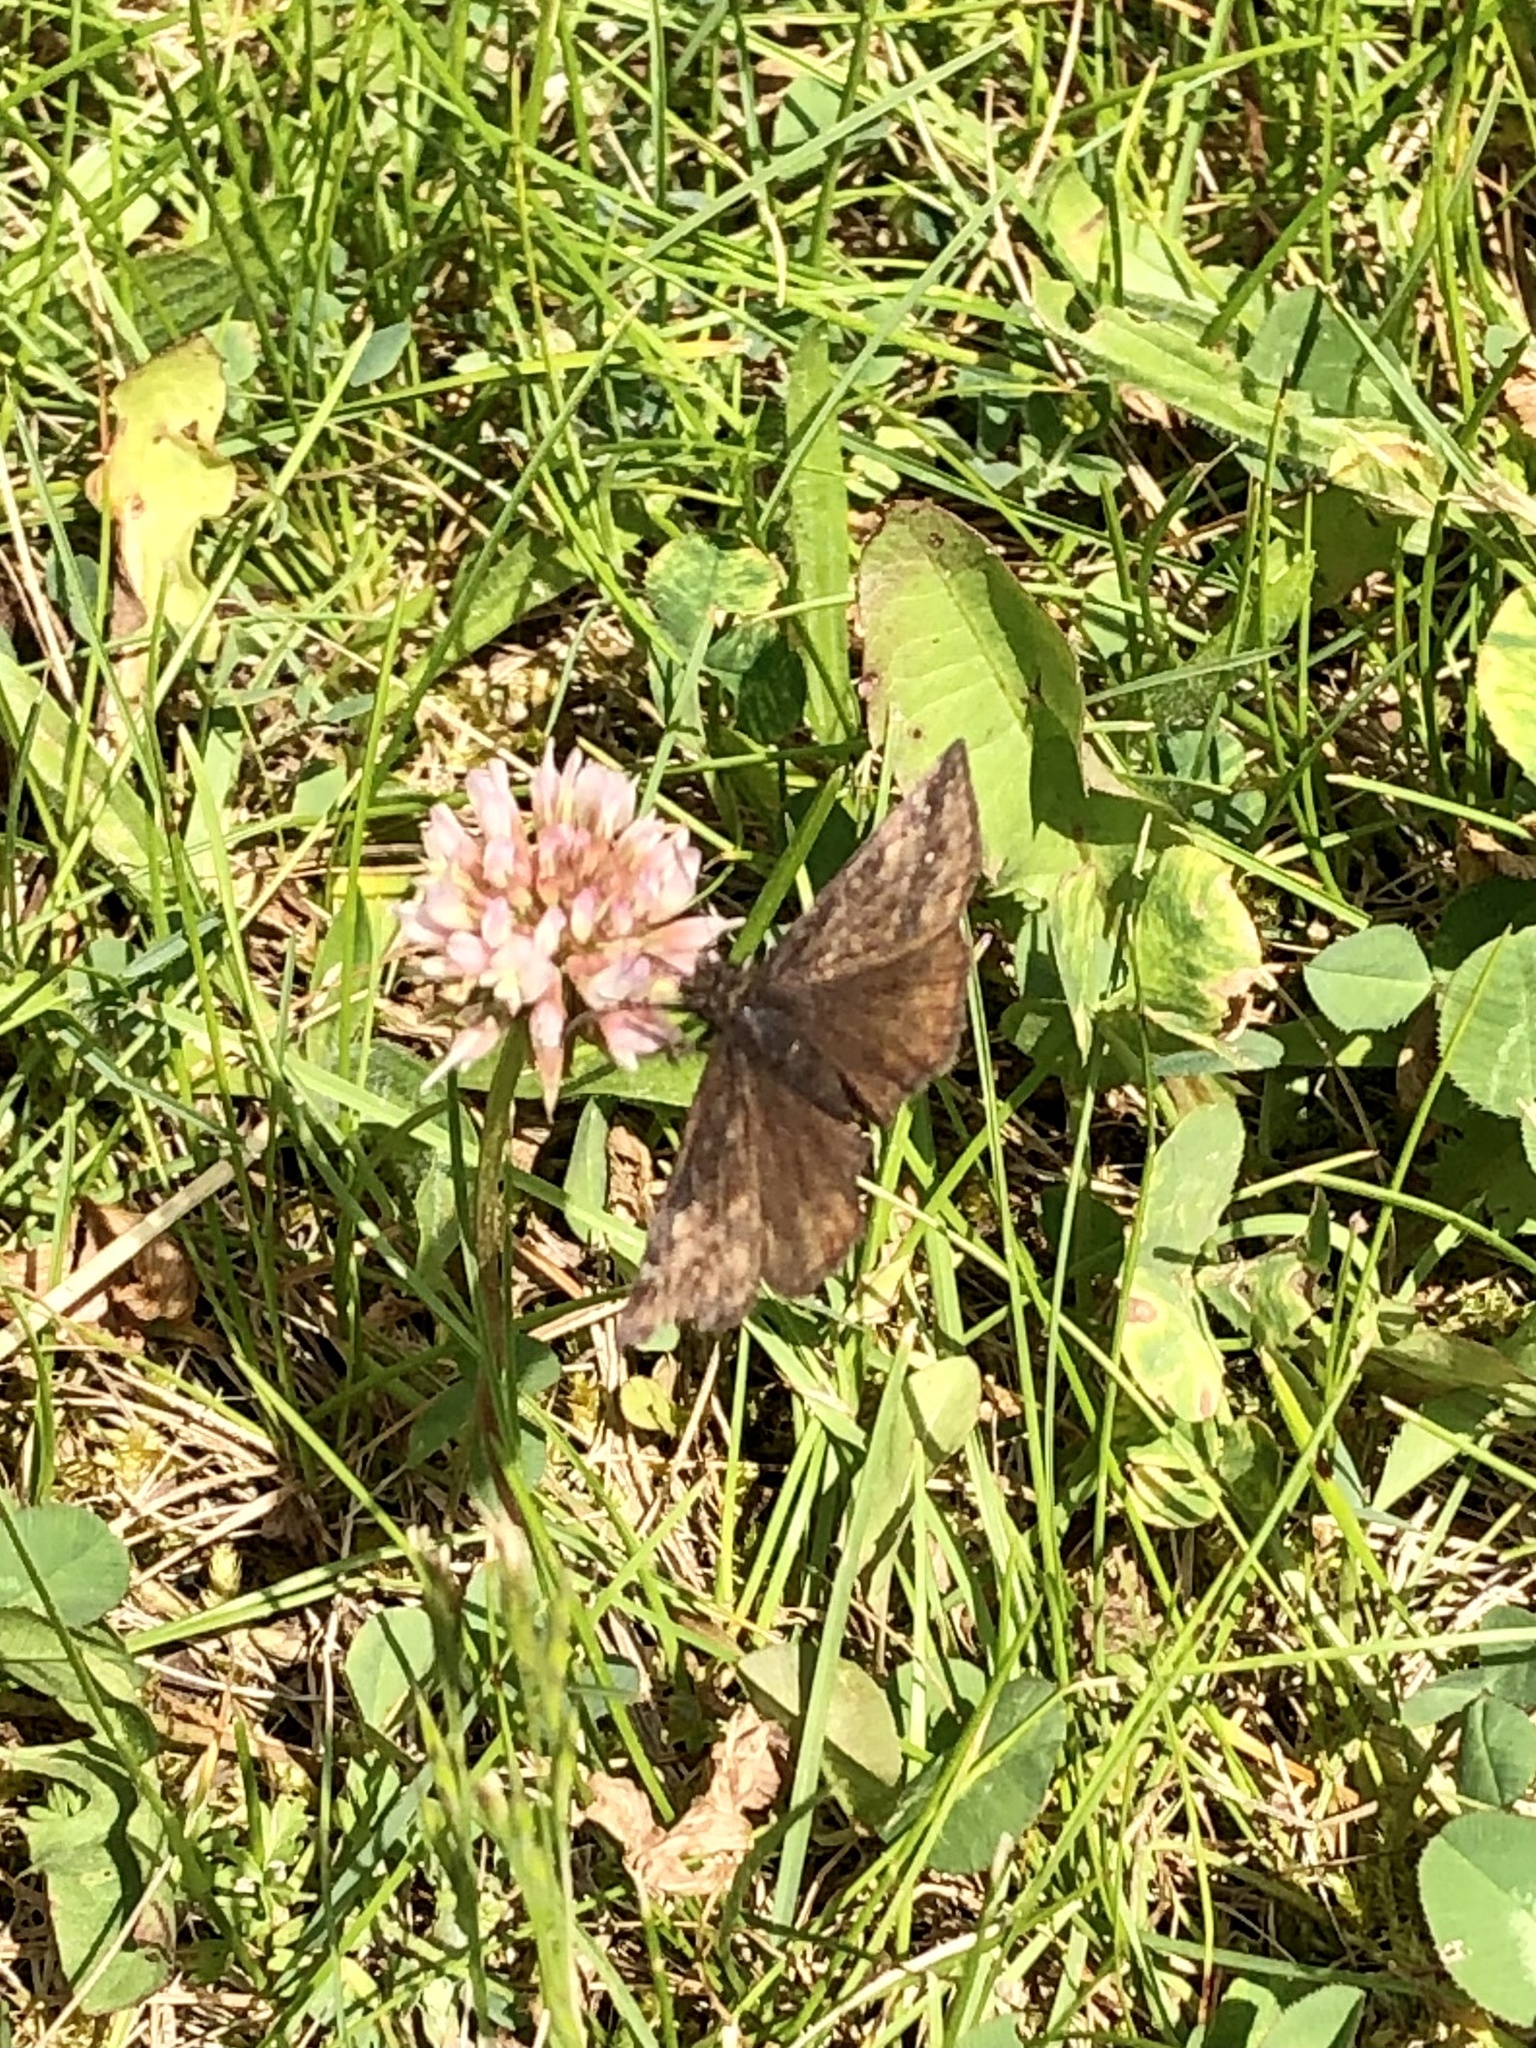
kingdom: Animalia
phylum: Arthropoda
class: Insecta
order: Lepidoptera
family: Hesperiidae
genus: Erynnis
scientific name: Erynnis baptisiae
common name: Wild indigo duskywing
